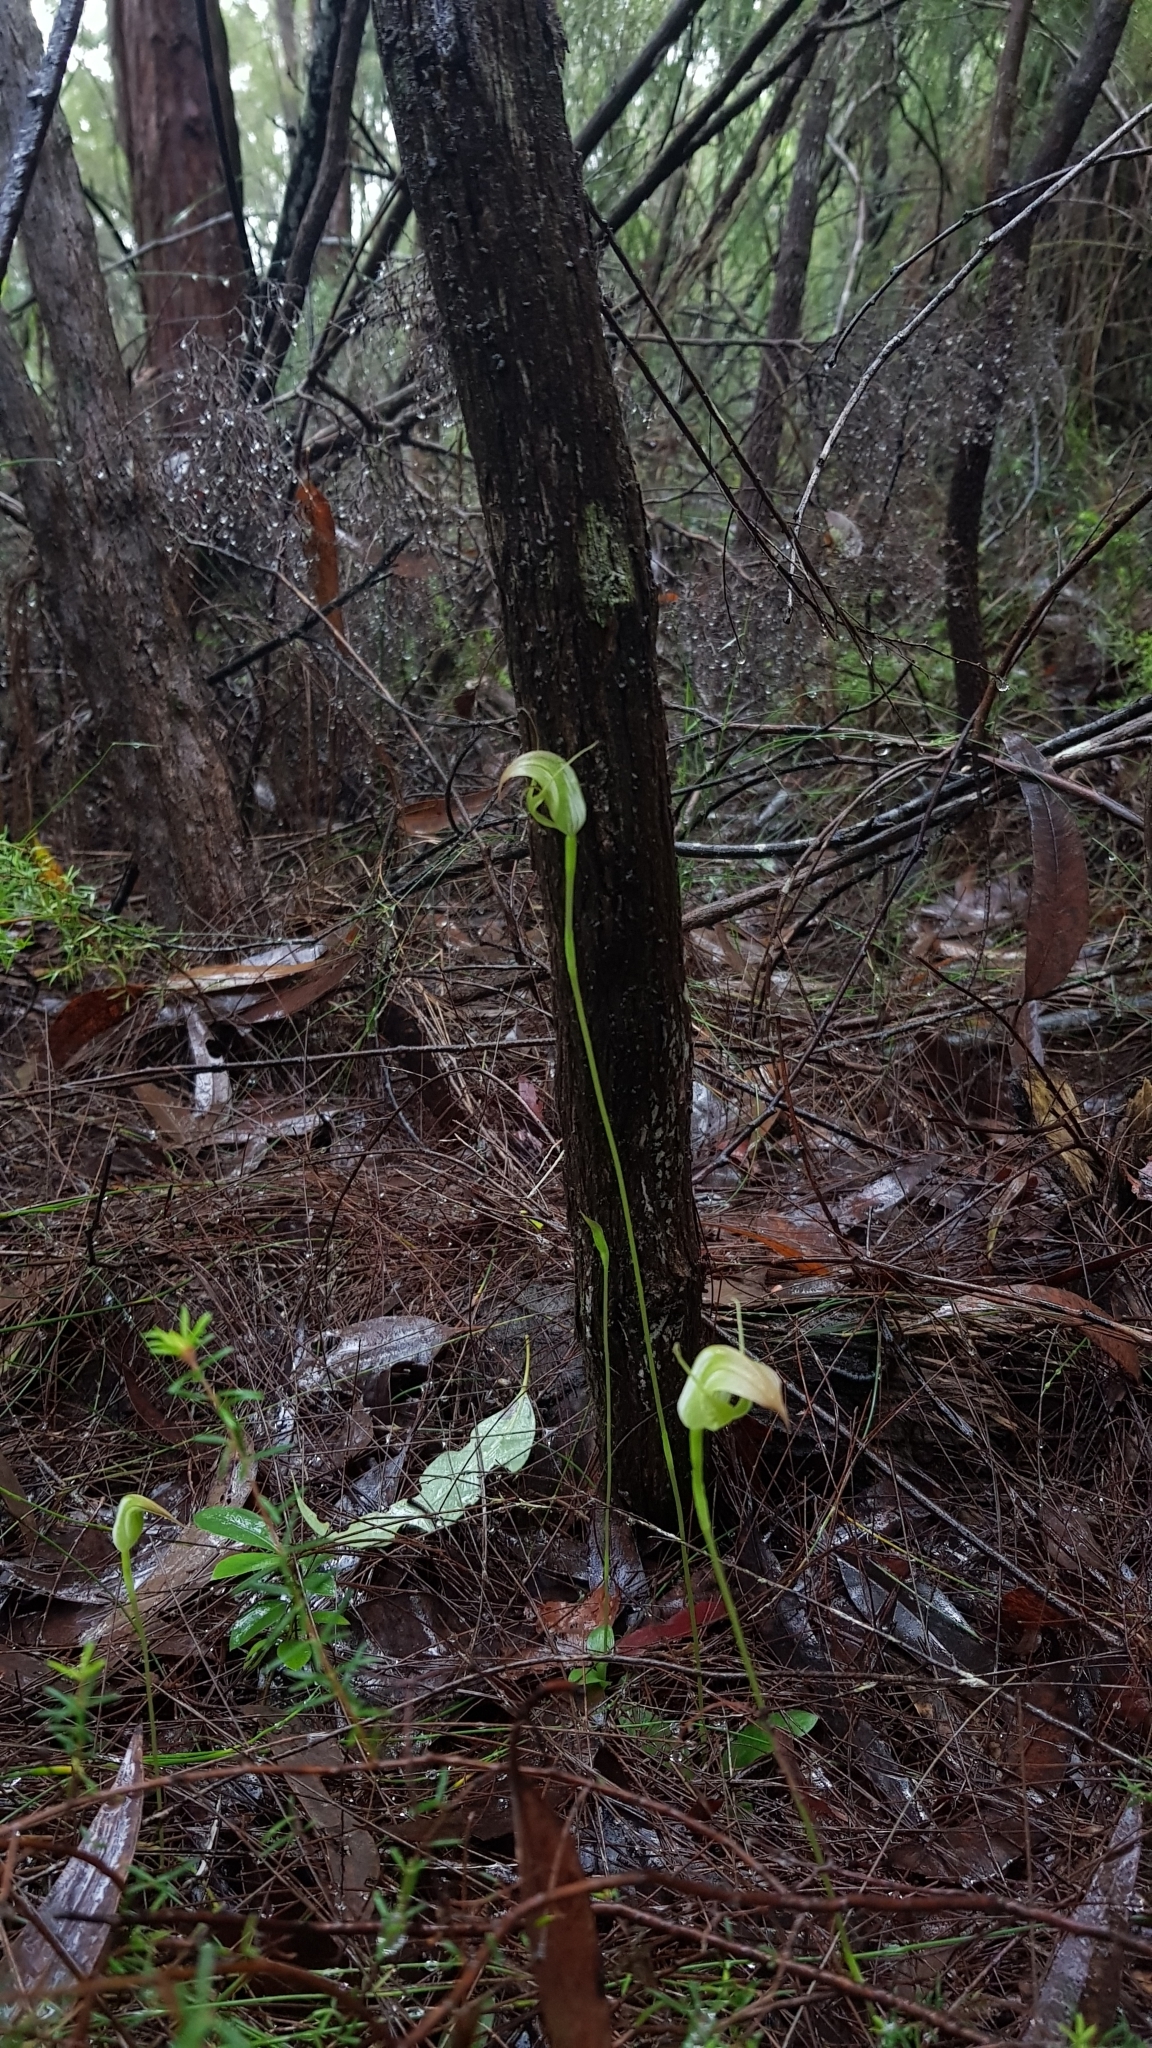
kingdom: Plantae
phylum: Tracheophyta
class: Liliopsida
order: Asparagales
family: Orchidaceae
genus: Pterostylis
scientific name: Pterostylis acuminata
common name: Pointed greenhood
